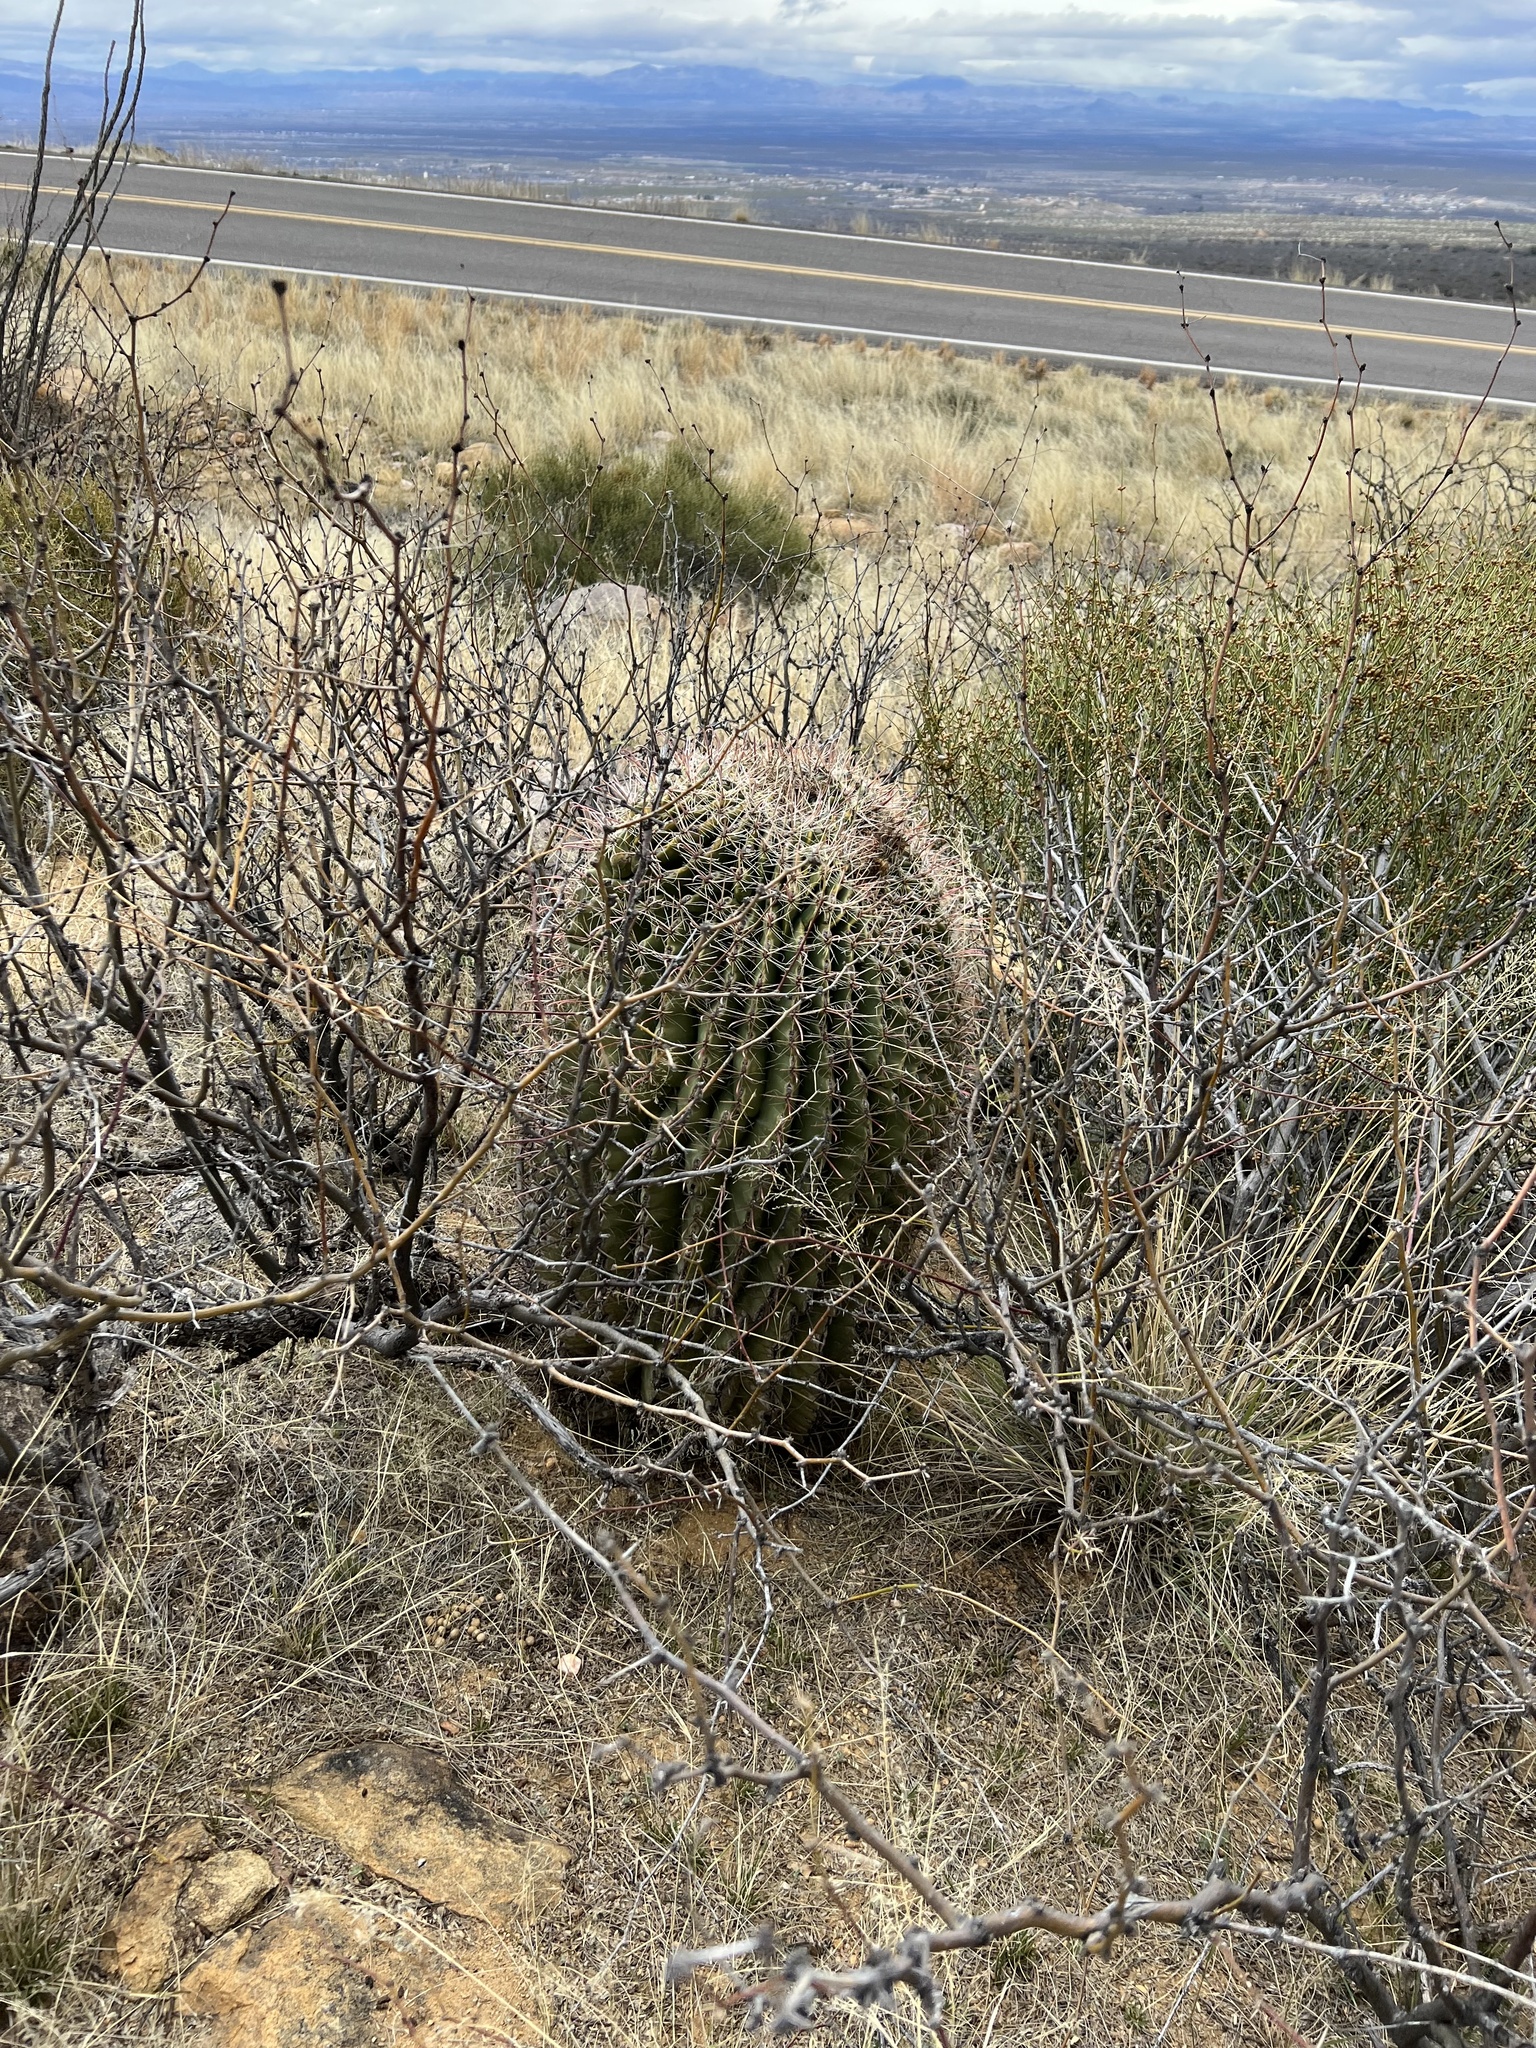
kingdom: Plantae
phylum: Tracheophyta
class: Magnoliopsida
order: Caryophyllales
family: Cactaceae
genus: Ferocactus
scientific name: Ferocactus wislizeni
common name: Candy barrel cactus
